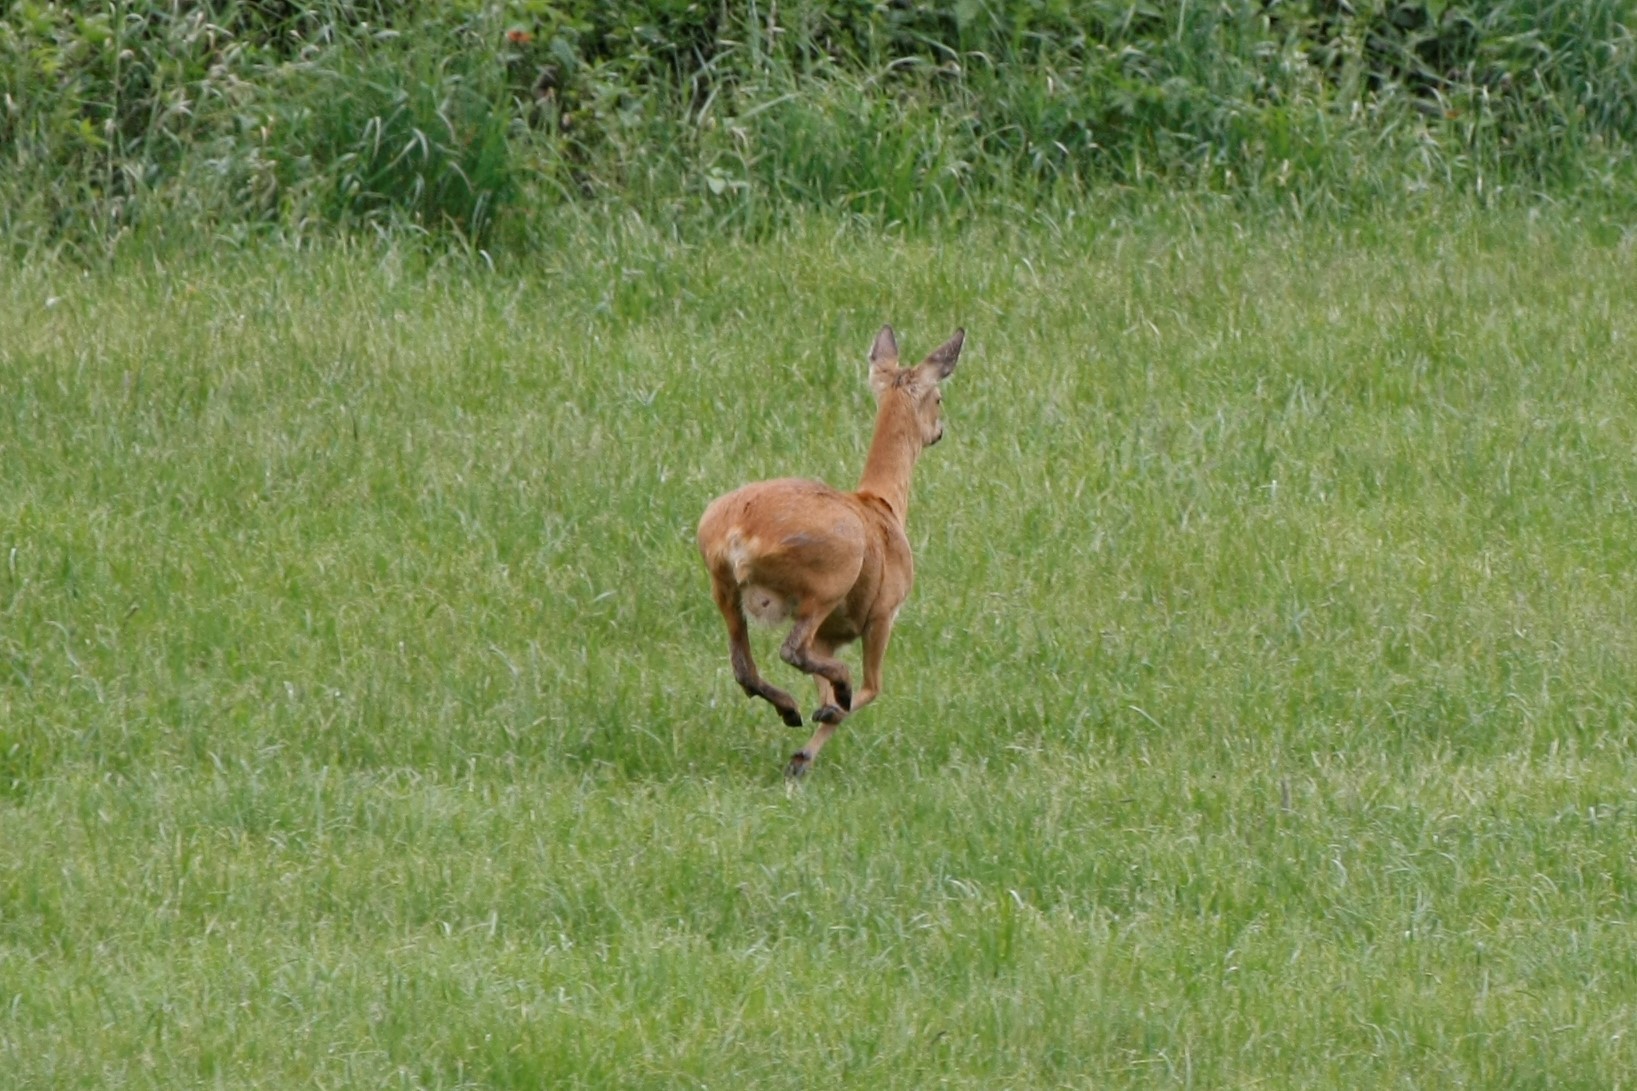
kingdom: Animalia
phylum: Chordata
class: Mammalia
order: Artiodactyla
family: Cervidae
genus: Capreolus
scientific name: Capreolus capreolus
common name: Western roe deer
